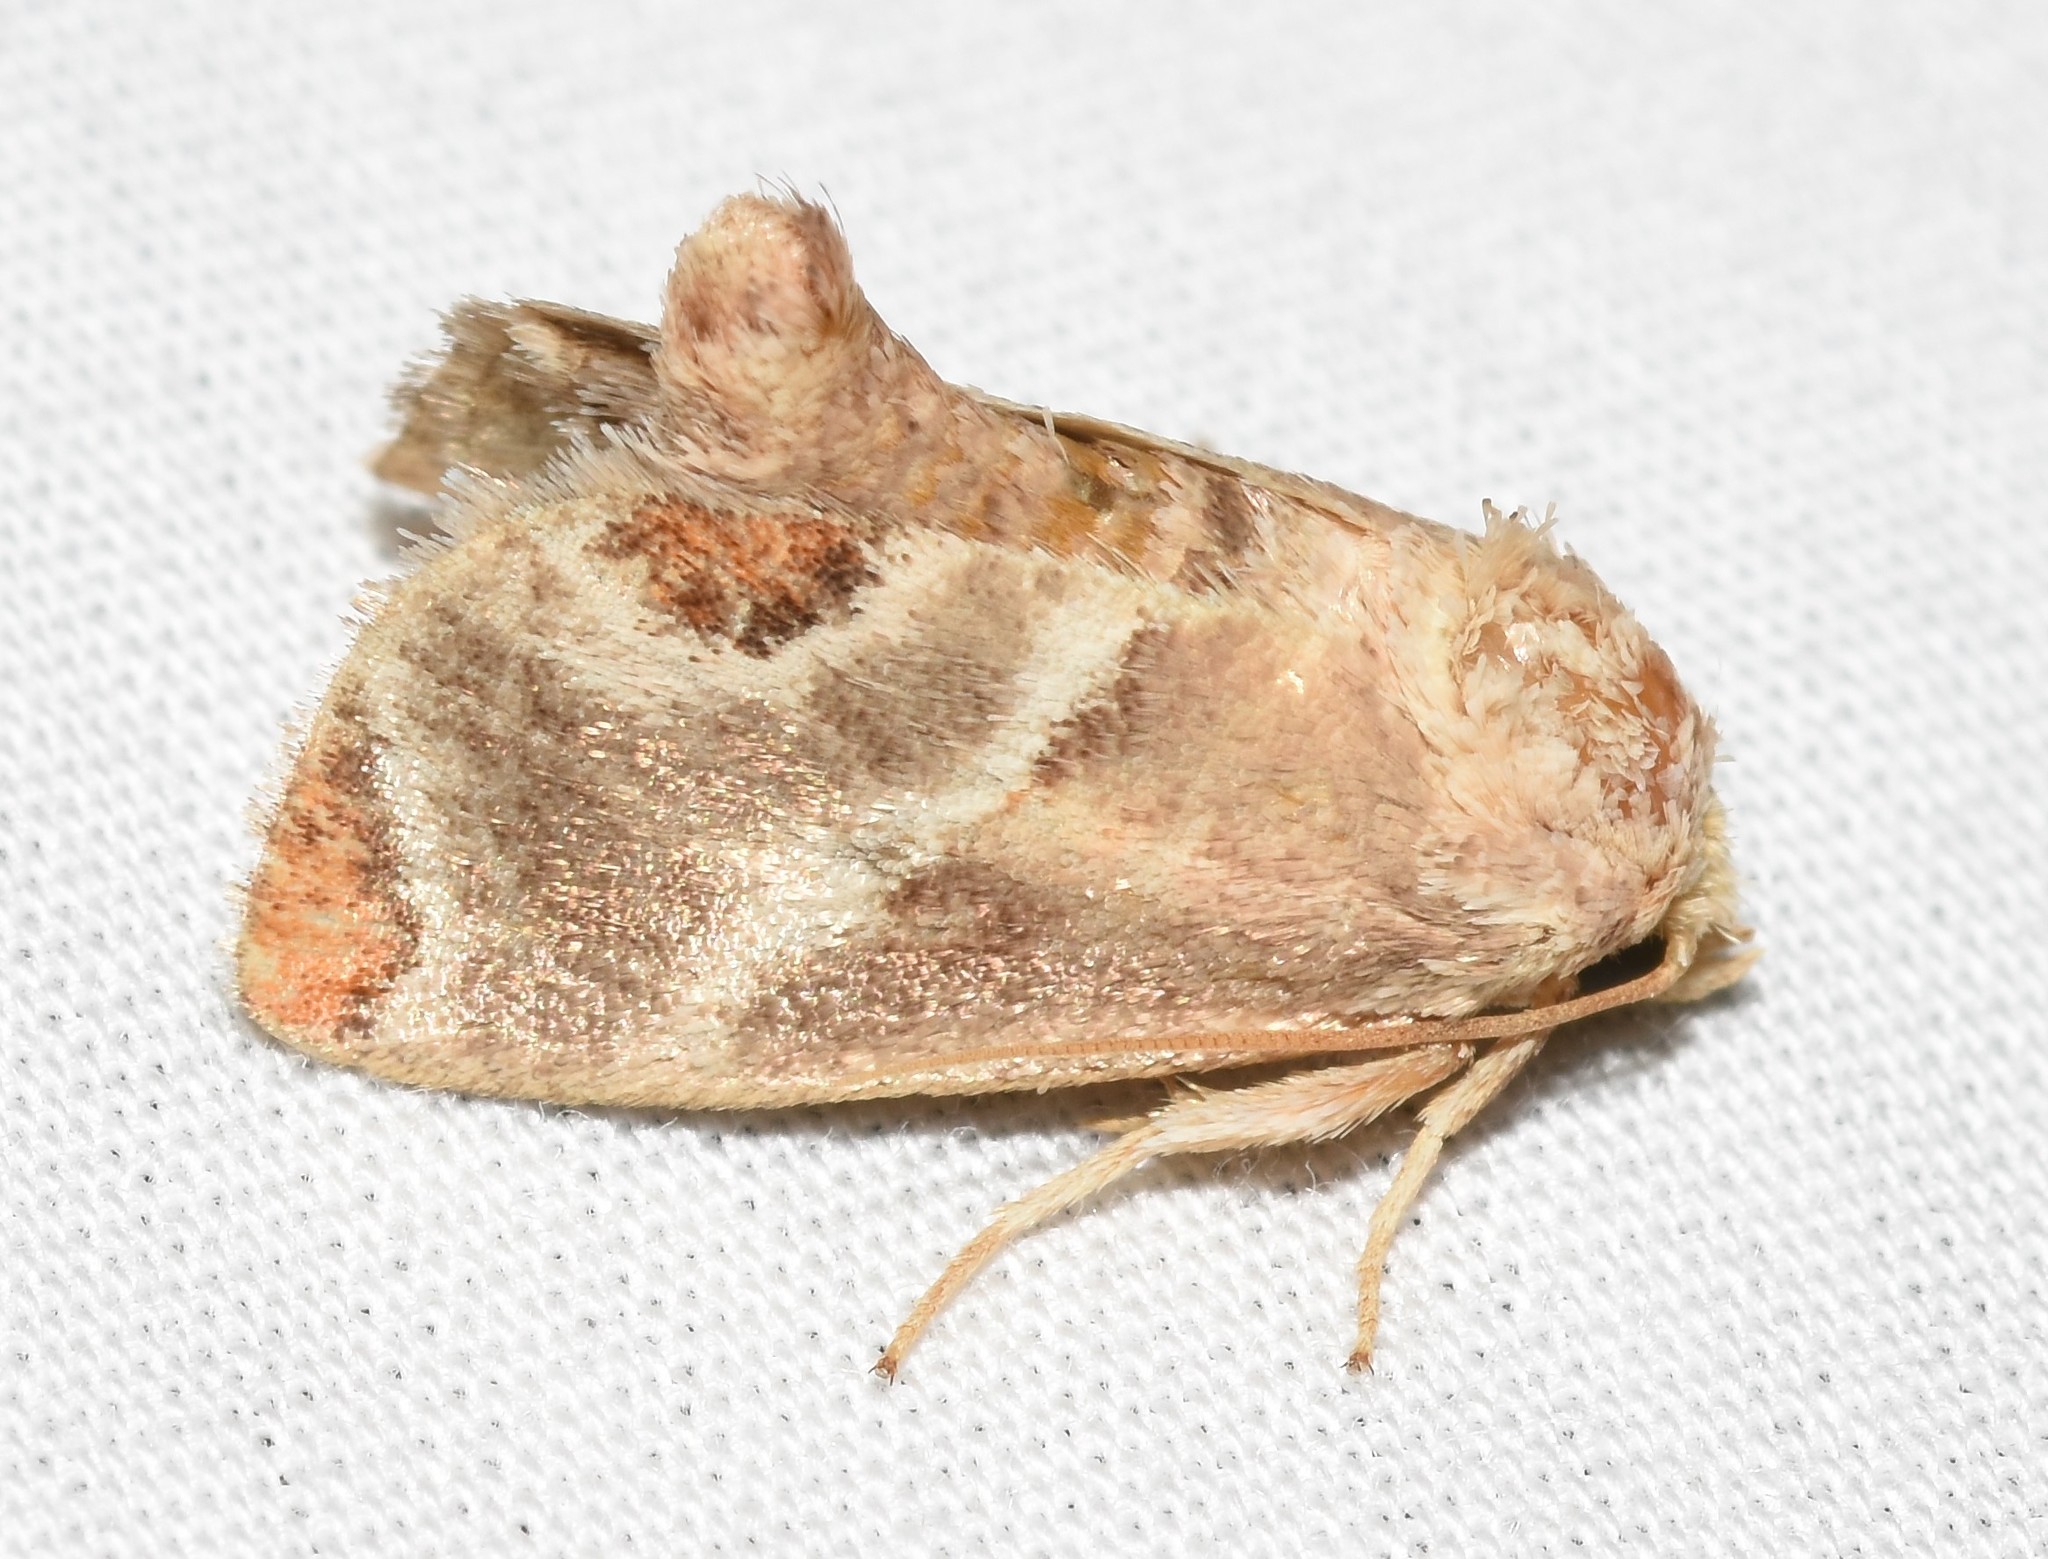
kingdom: Animalia
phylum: Arthropoda
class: Insecta
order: Lepidoptera
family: Limacodidae
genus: Apoda
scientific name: Apoda biguttata
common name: Shagreened slug moth
